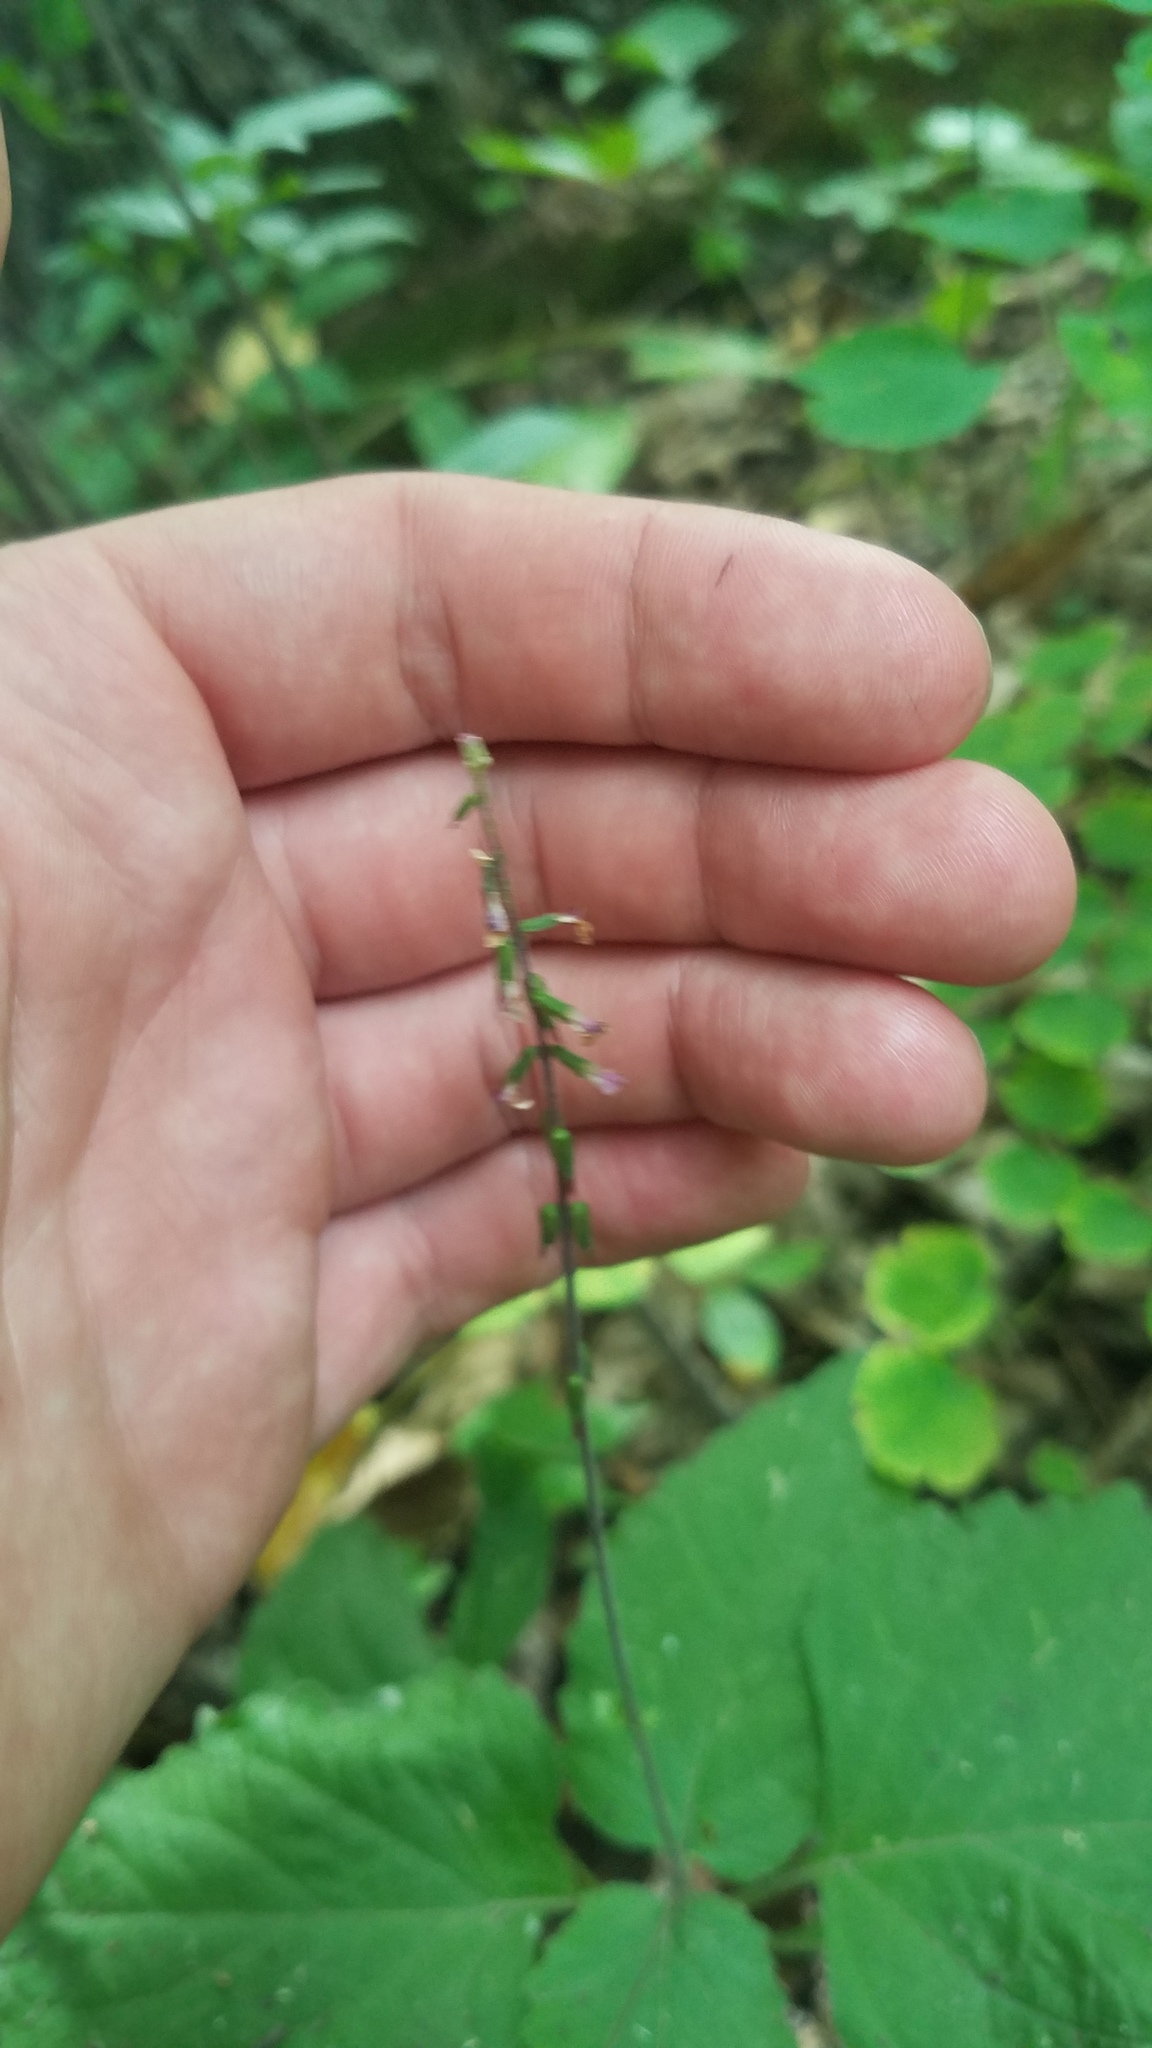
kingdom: Plantae
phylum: Tracheophyta
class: Magnoliopsida
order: Lamiales
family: Phrymaceae
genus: Phryma
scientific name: Phryma leptostachya
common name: American lopseed
